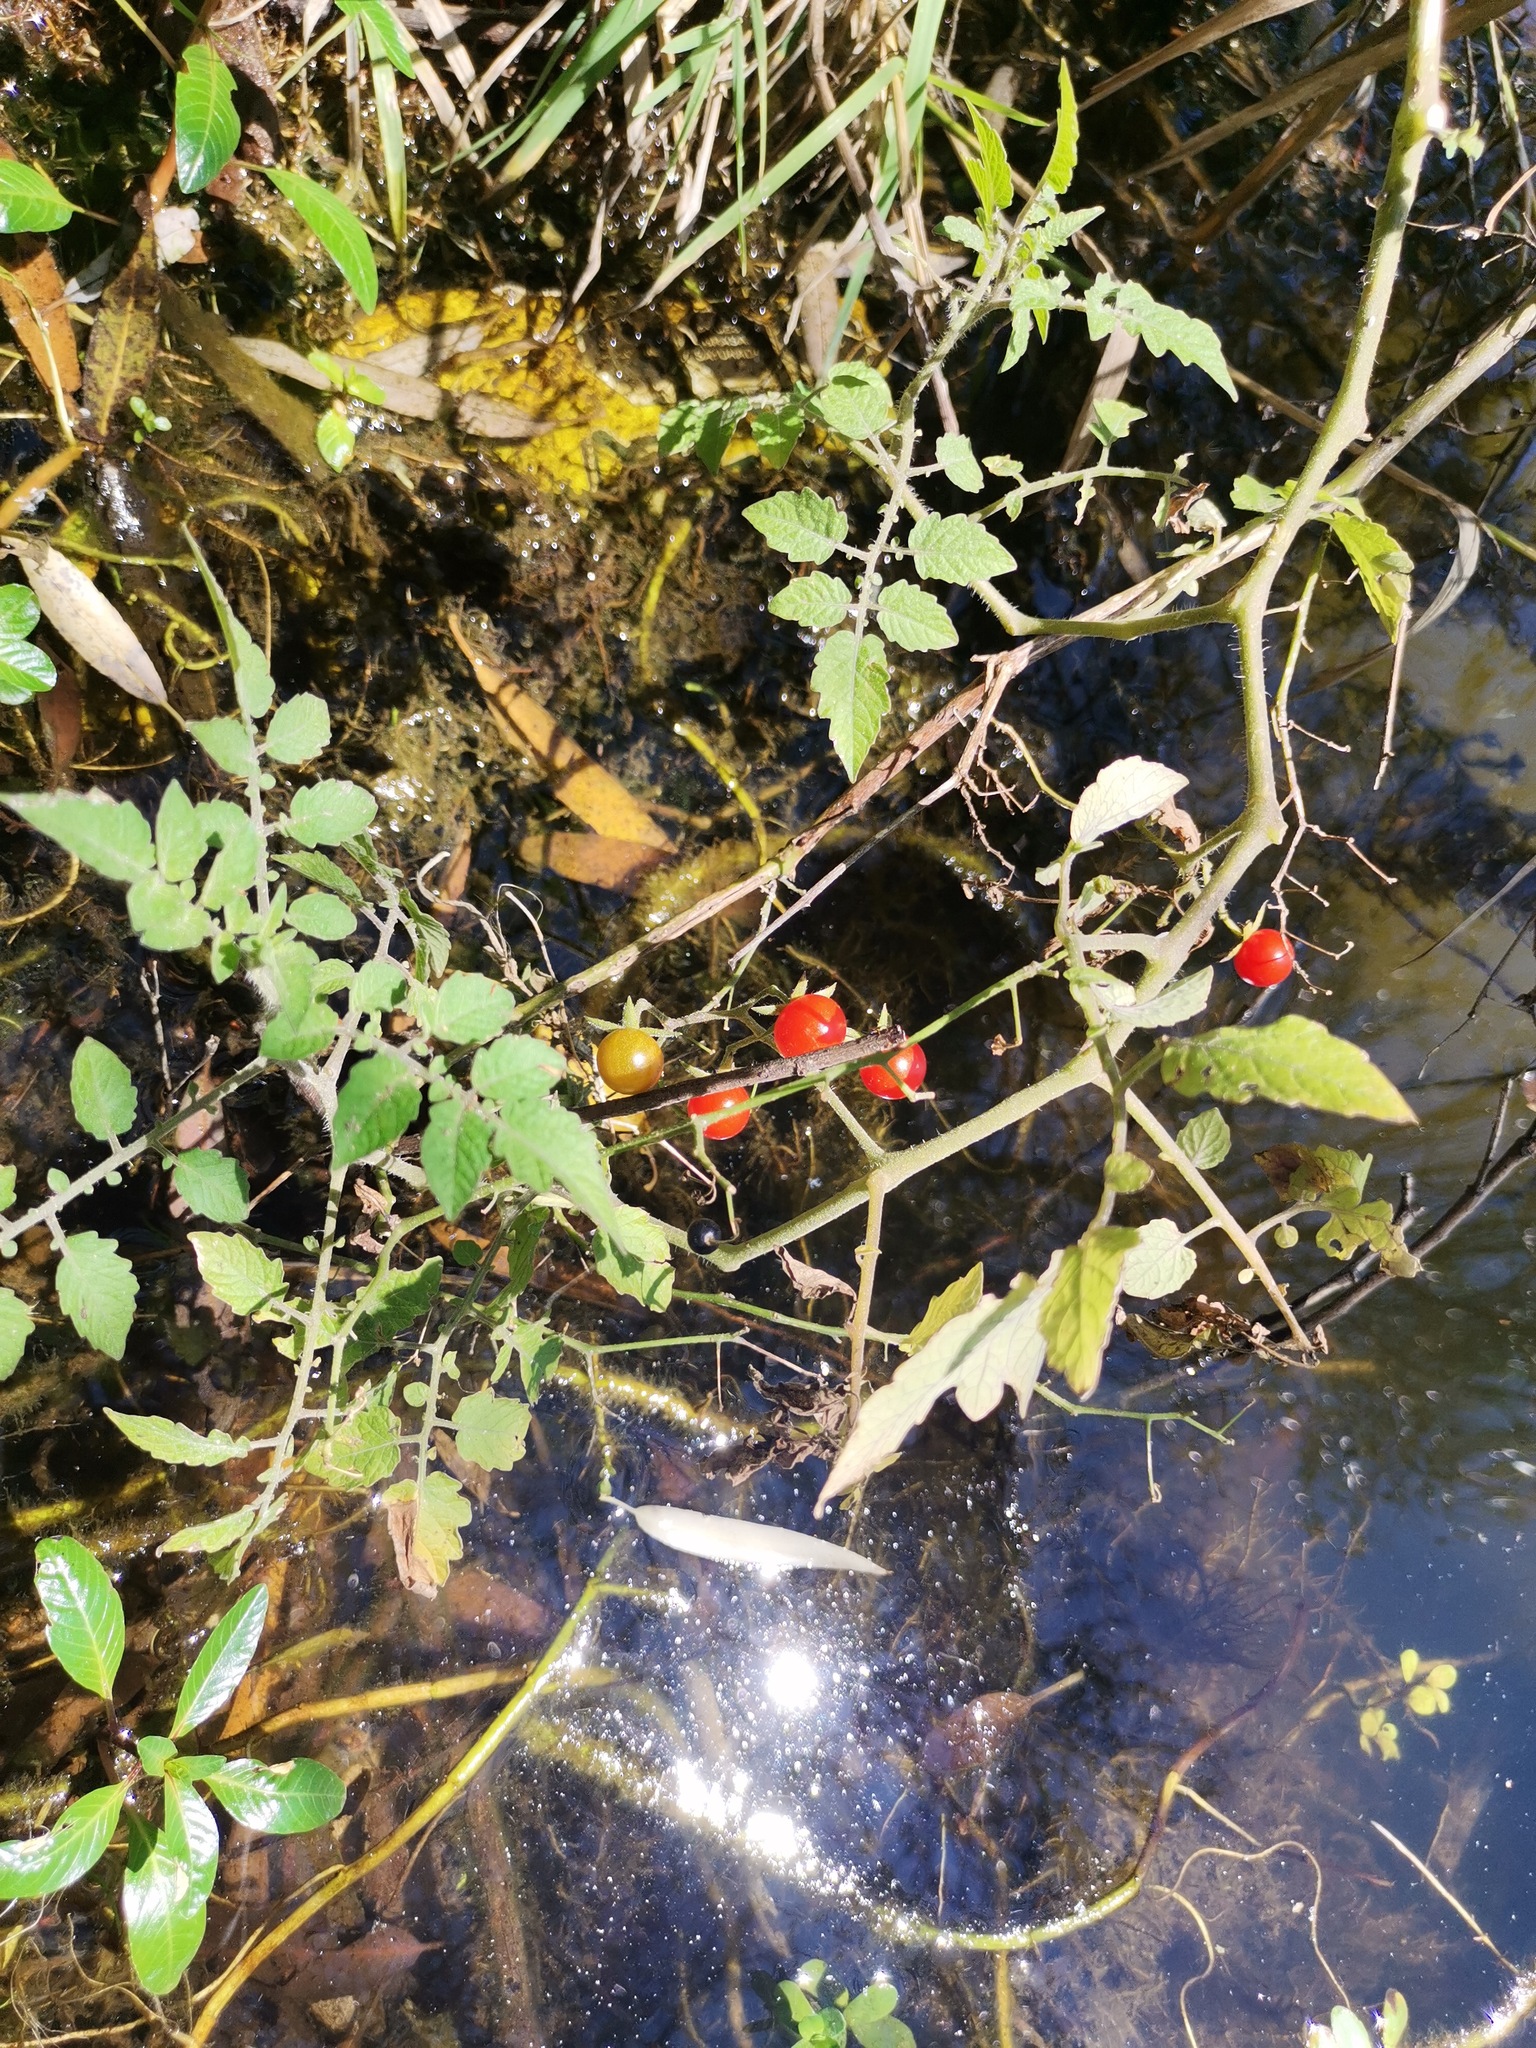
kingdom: Plantae
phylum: Tracheophyta
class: Magnoliopsida
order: Solanales
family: Solanaceae
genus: Solanum
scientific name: Solanum lycopersicum
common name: Garden tomato
